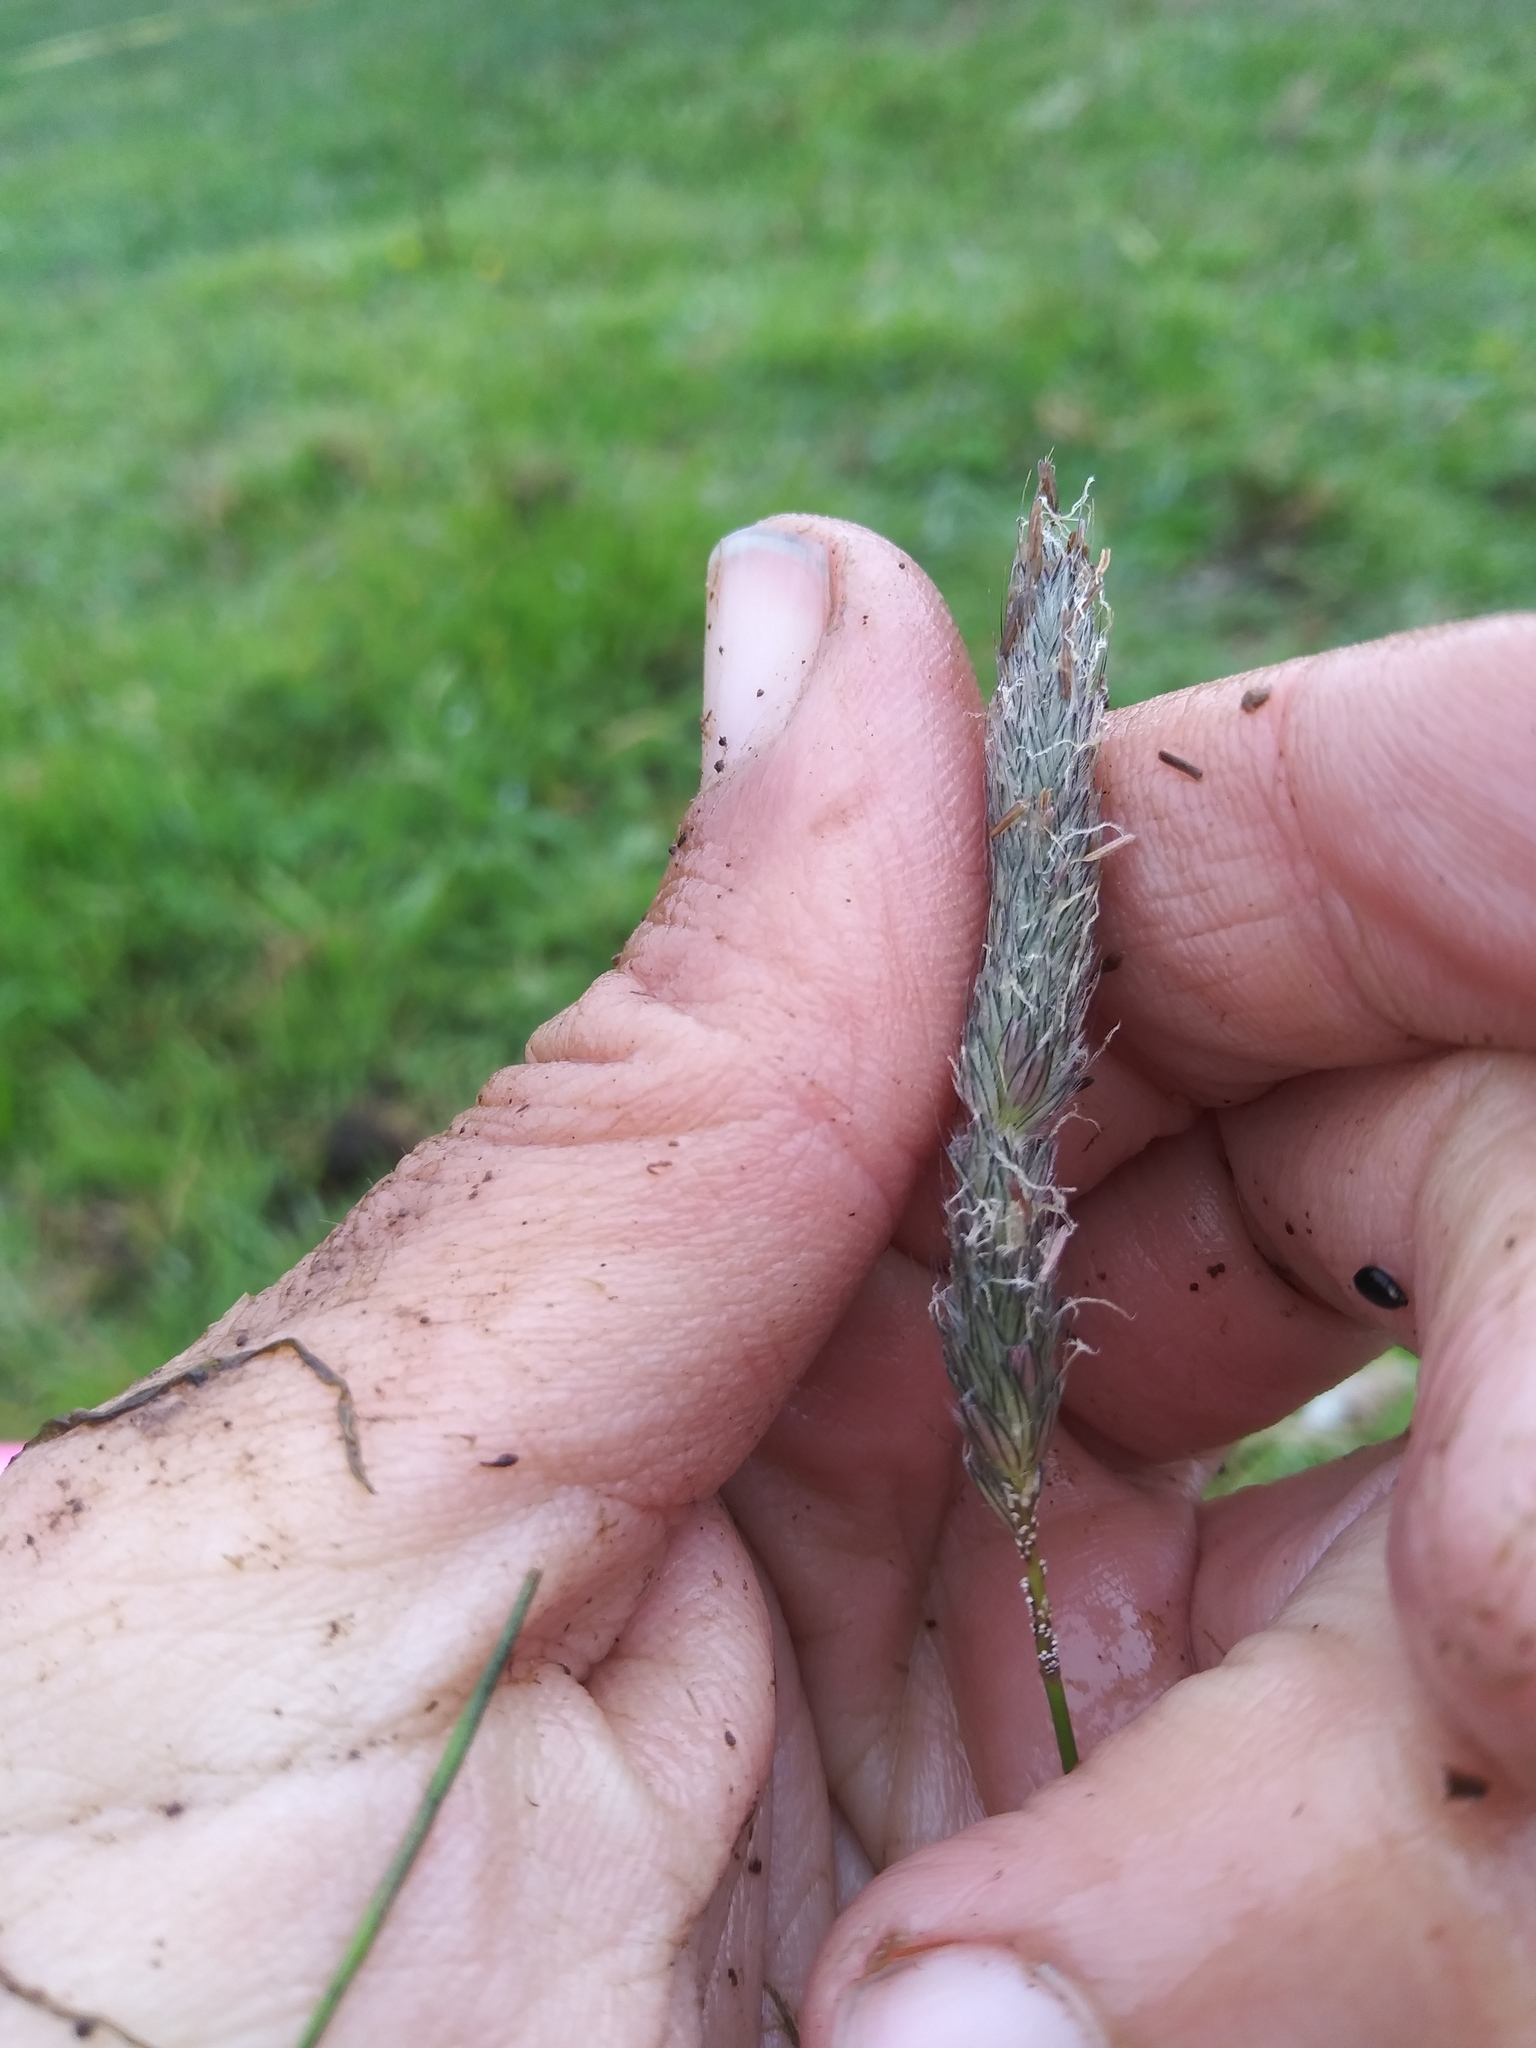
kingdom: Plantae
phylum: Tracheophyta
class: Liliopsida
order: Poales
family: Poaceae
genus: Alopecurus
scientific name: Alopecurus pratensis
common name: Meadow foxtail
